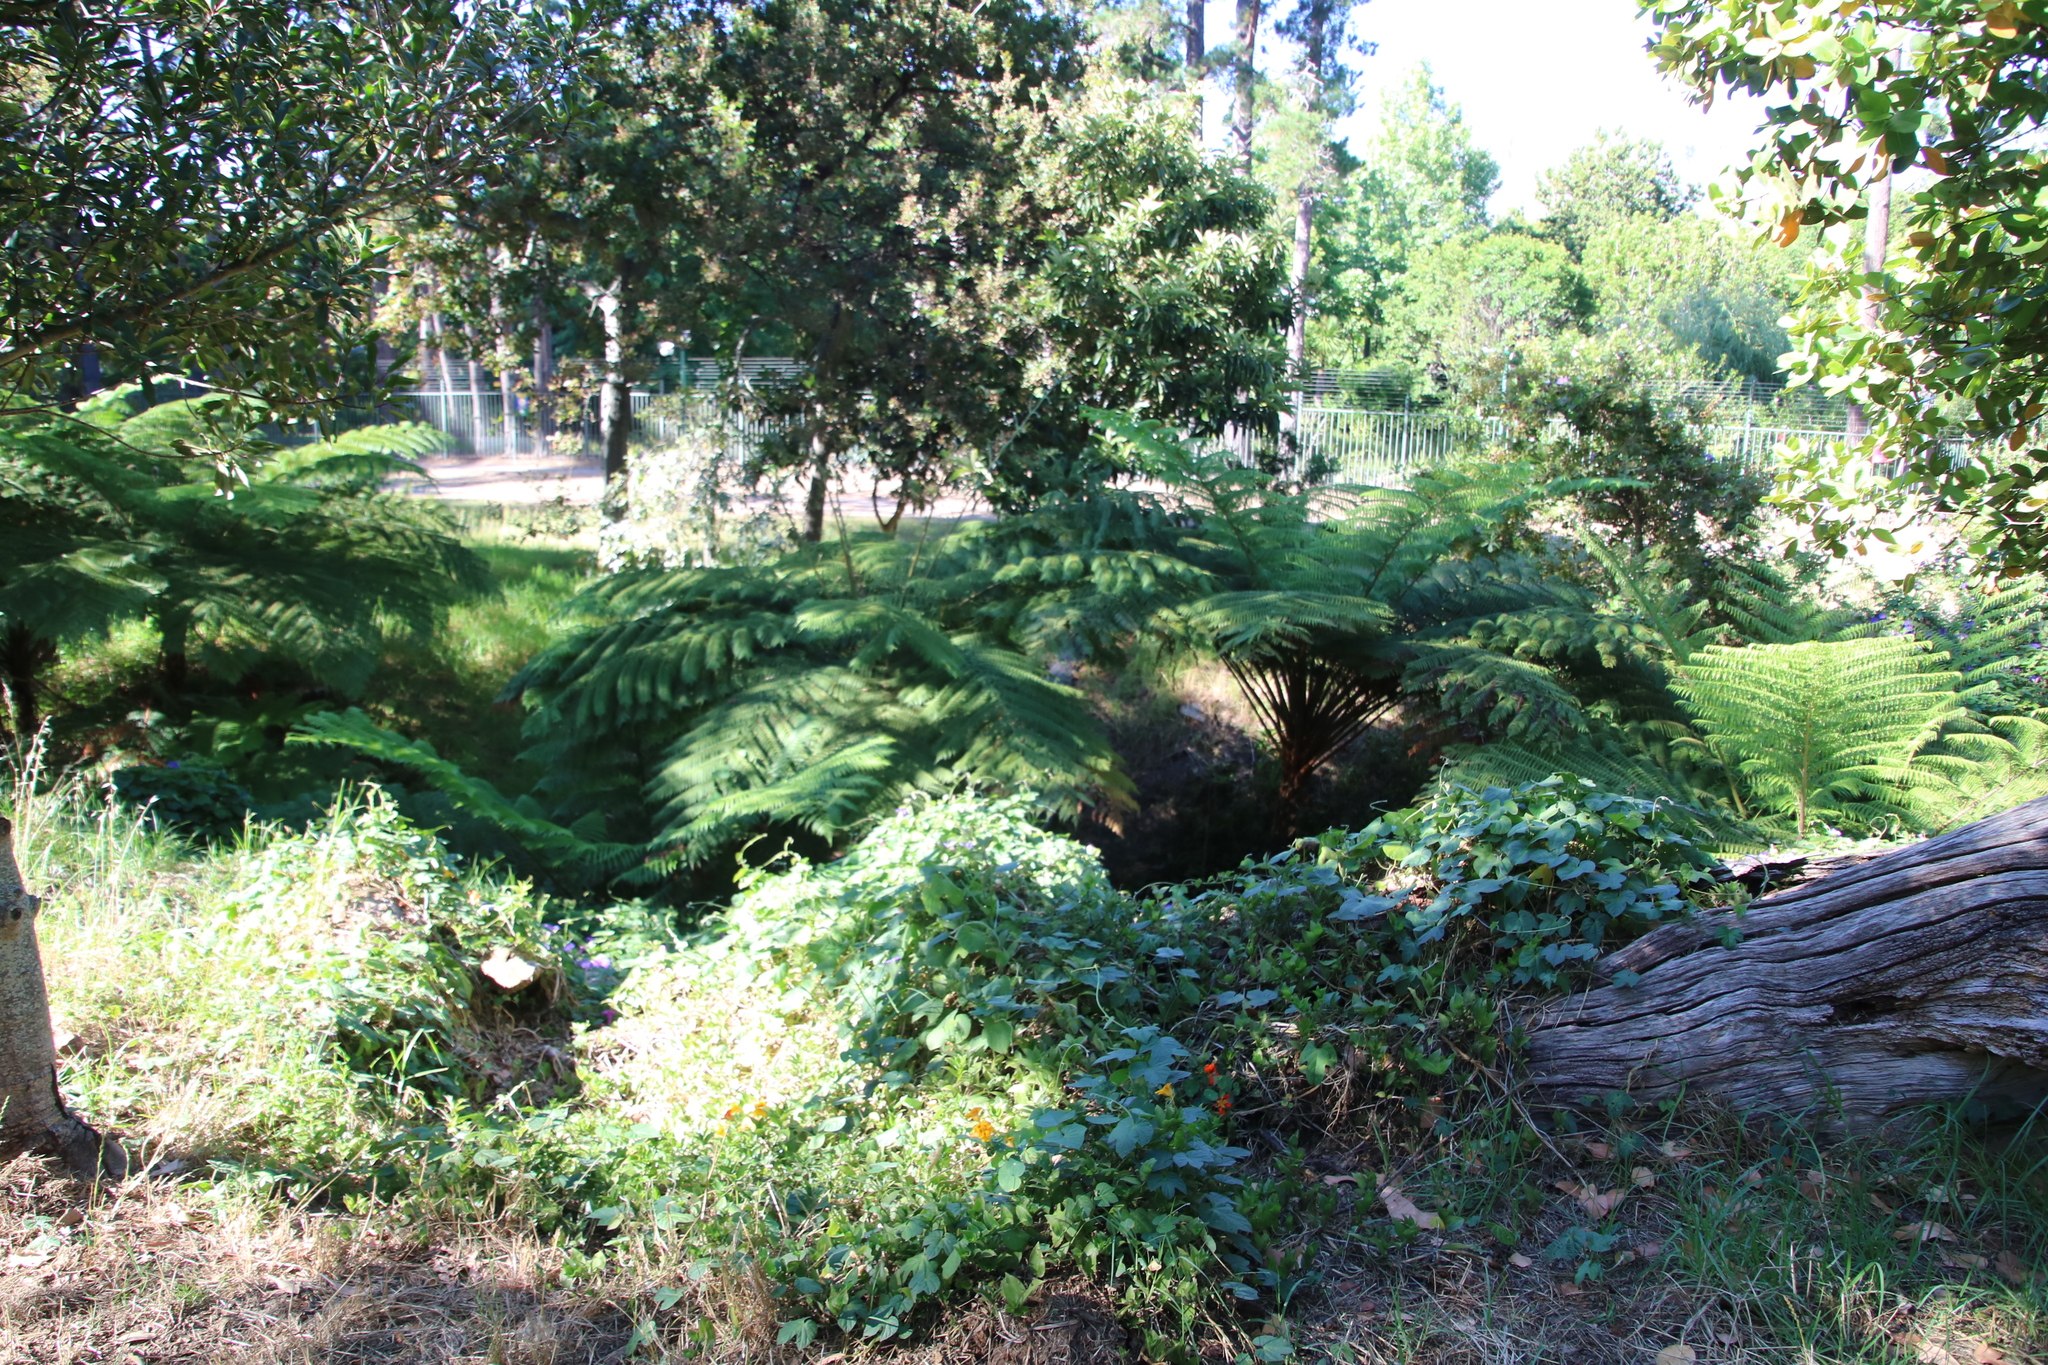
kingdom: Plantae
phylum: Tracheophyta
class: Polypodiopsida
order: Cyatheales
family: Cyatheaceae
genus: Sphaeropteris
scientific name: Sphaeropteris cooperi
